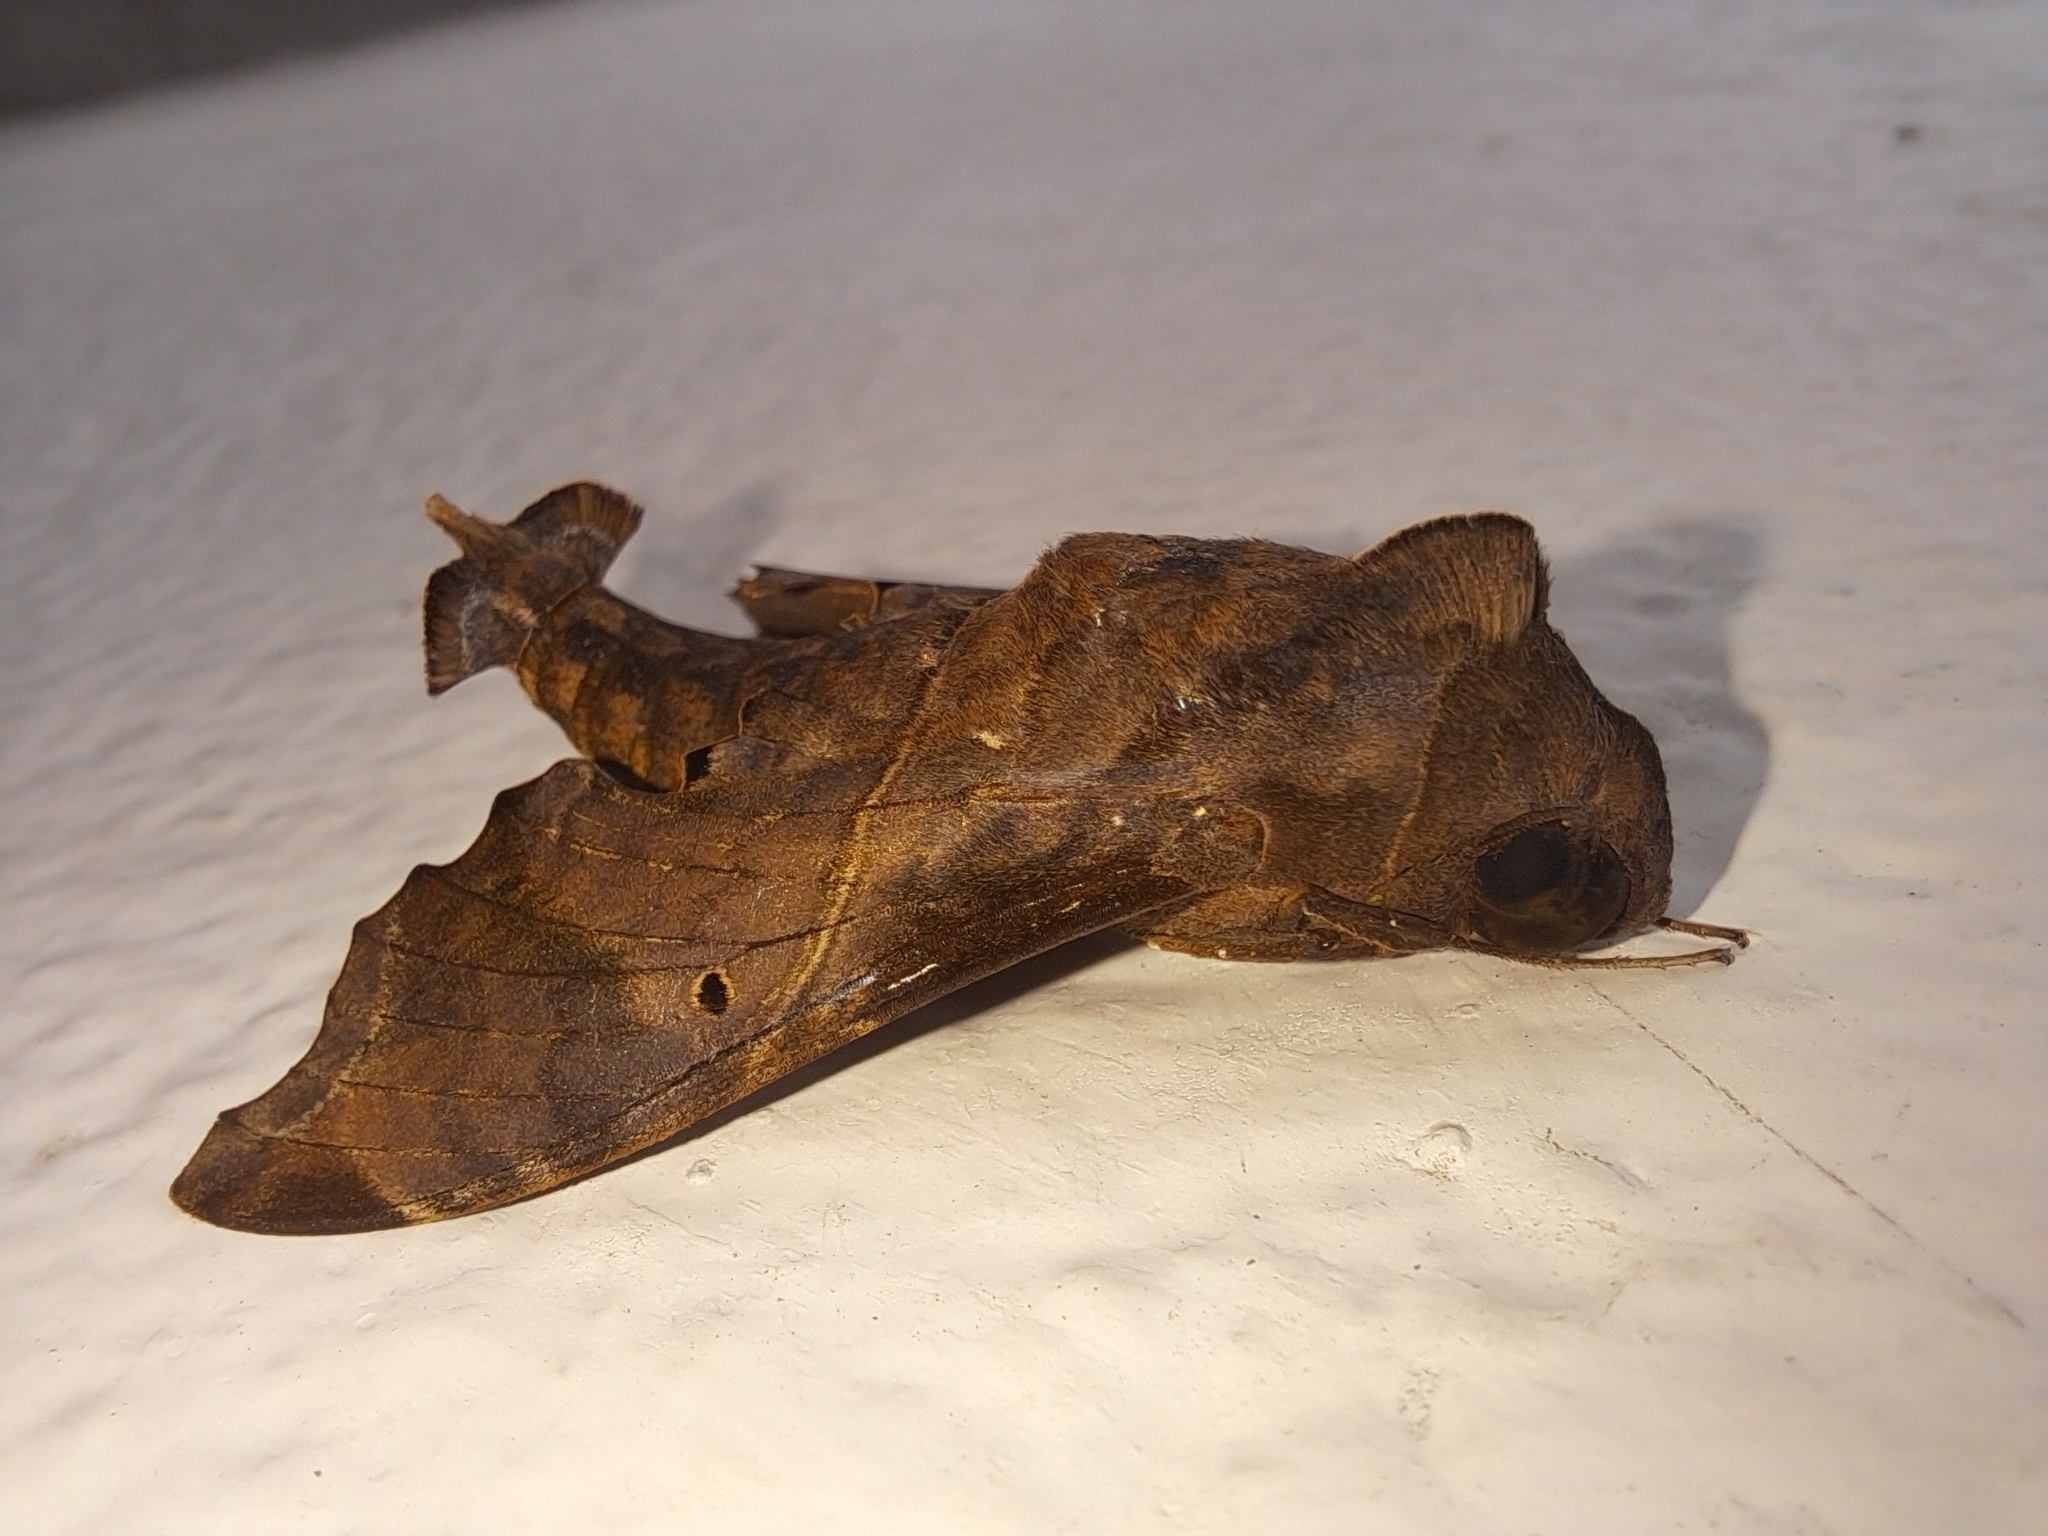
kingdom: Animalia
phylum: Arthropoda
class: Insecta
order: Lepidoptera
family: Sphingidae
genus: Enyo
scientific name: Enyo lugubris
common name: Mournful sphinx
